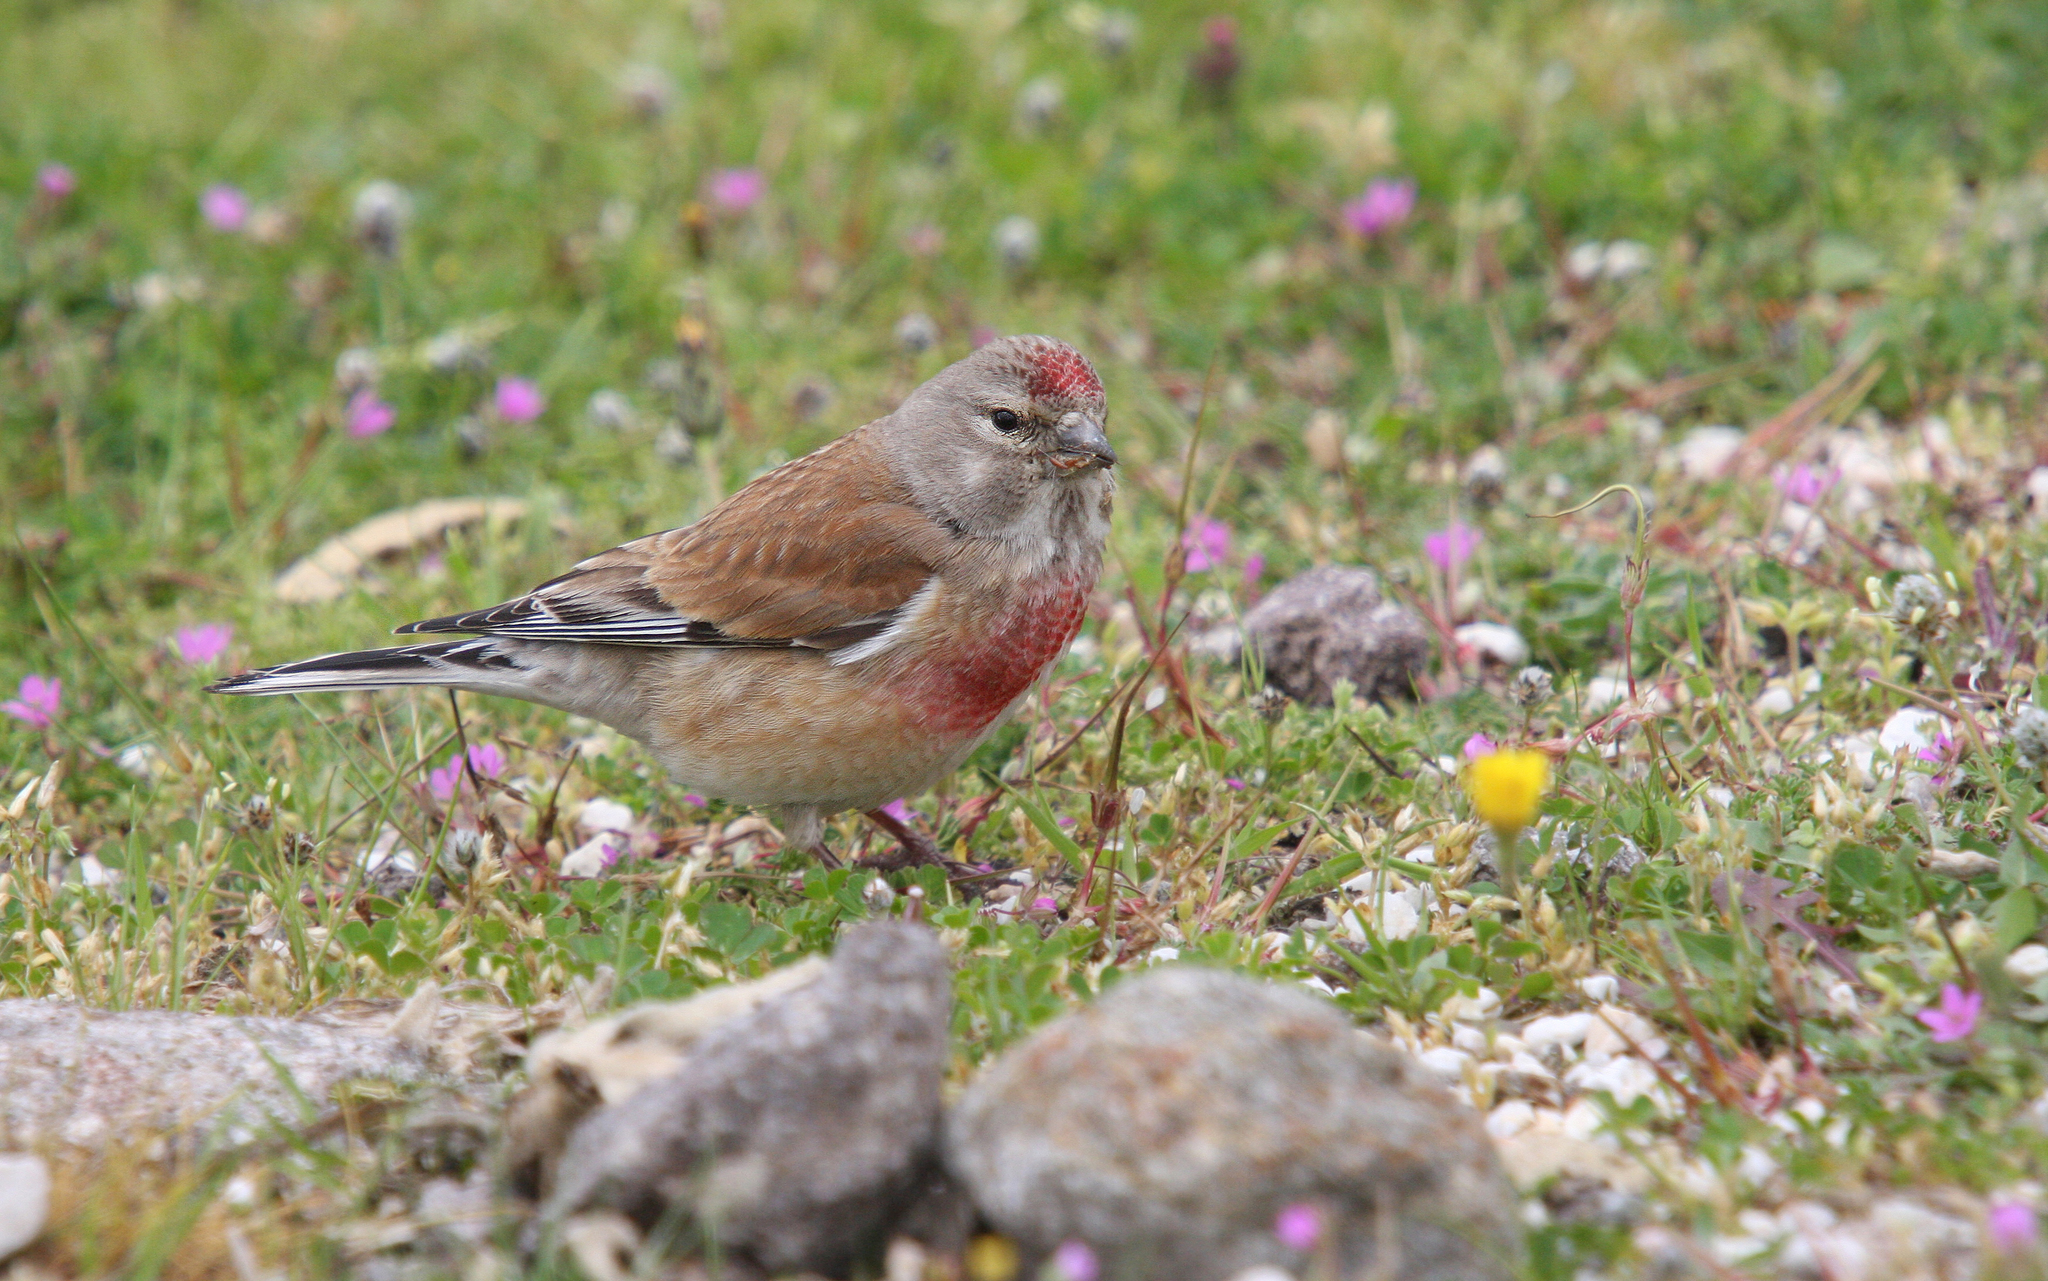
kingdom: Animalia
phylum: Chordata
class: Aves
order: Passeriformes
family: Fringillidae
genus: Linaria
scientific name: Linaria cannabina
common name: Common linnet
